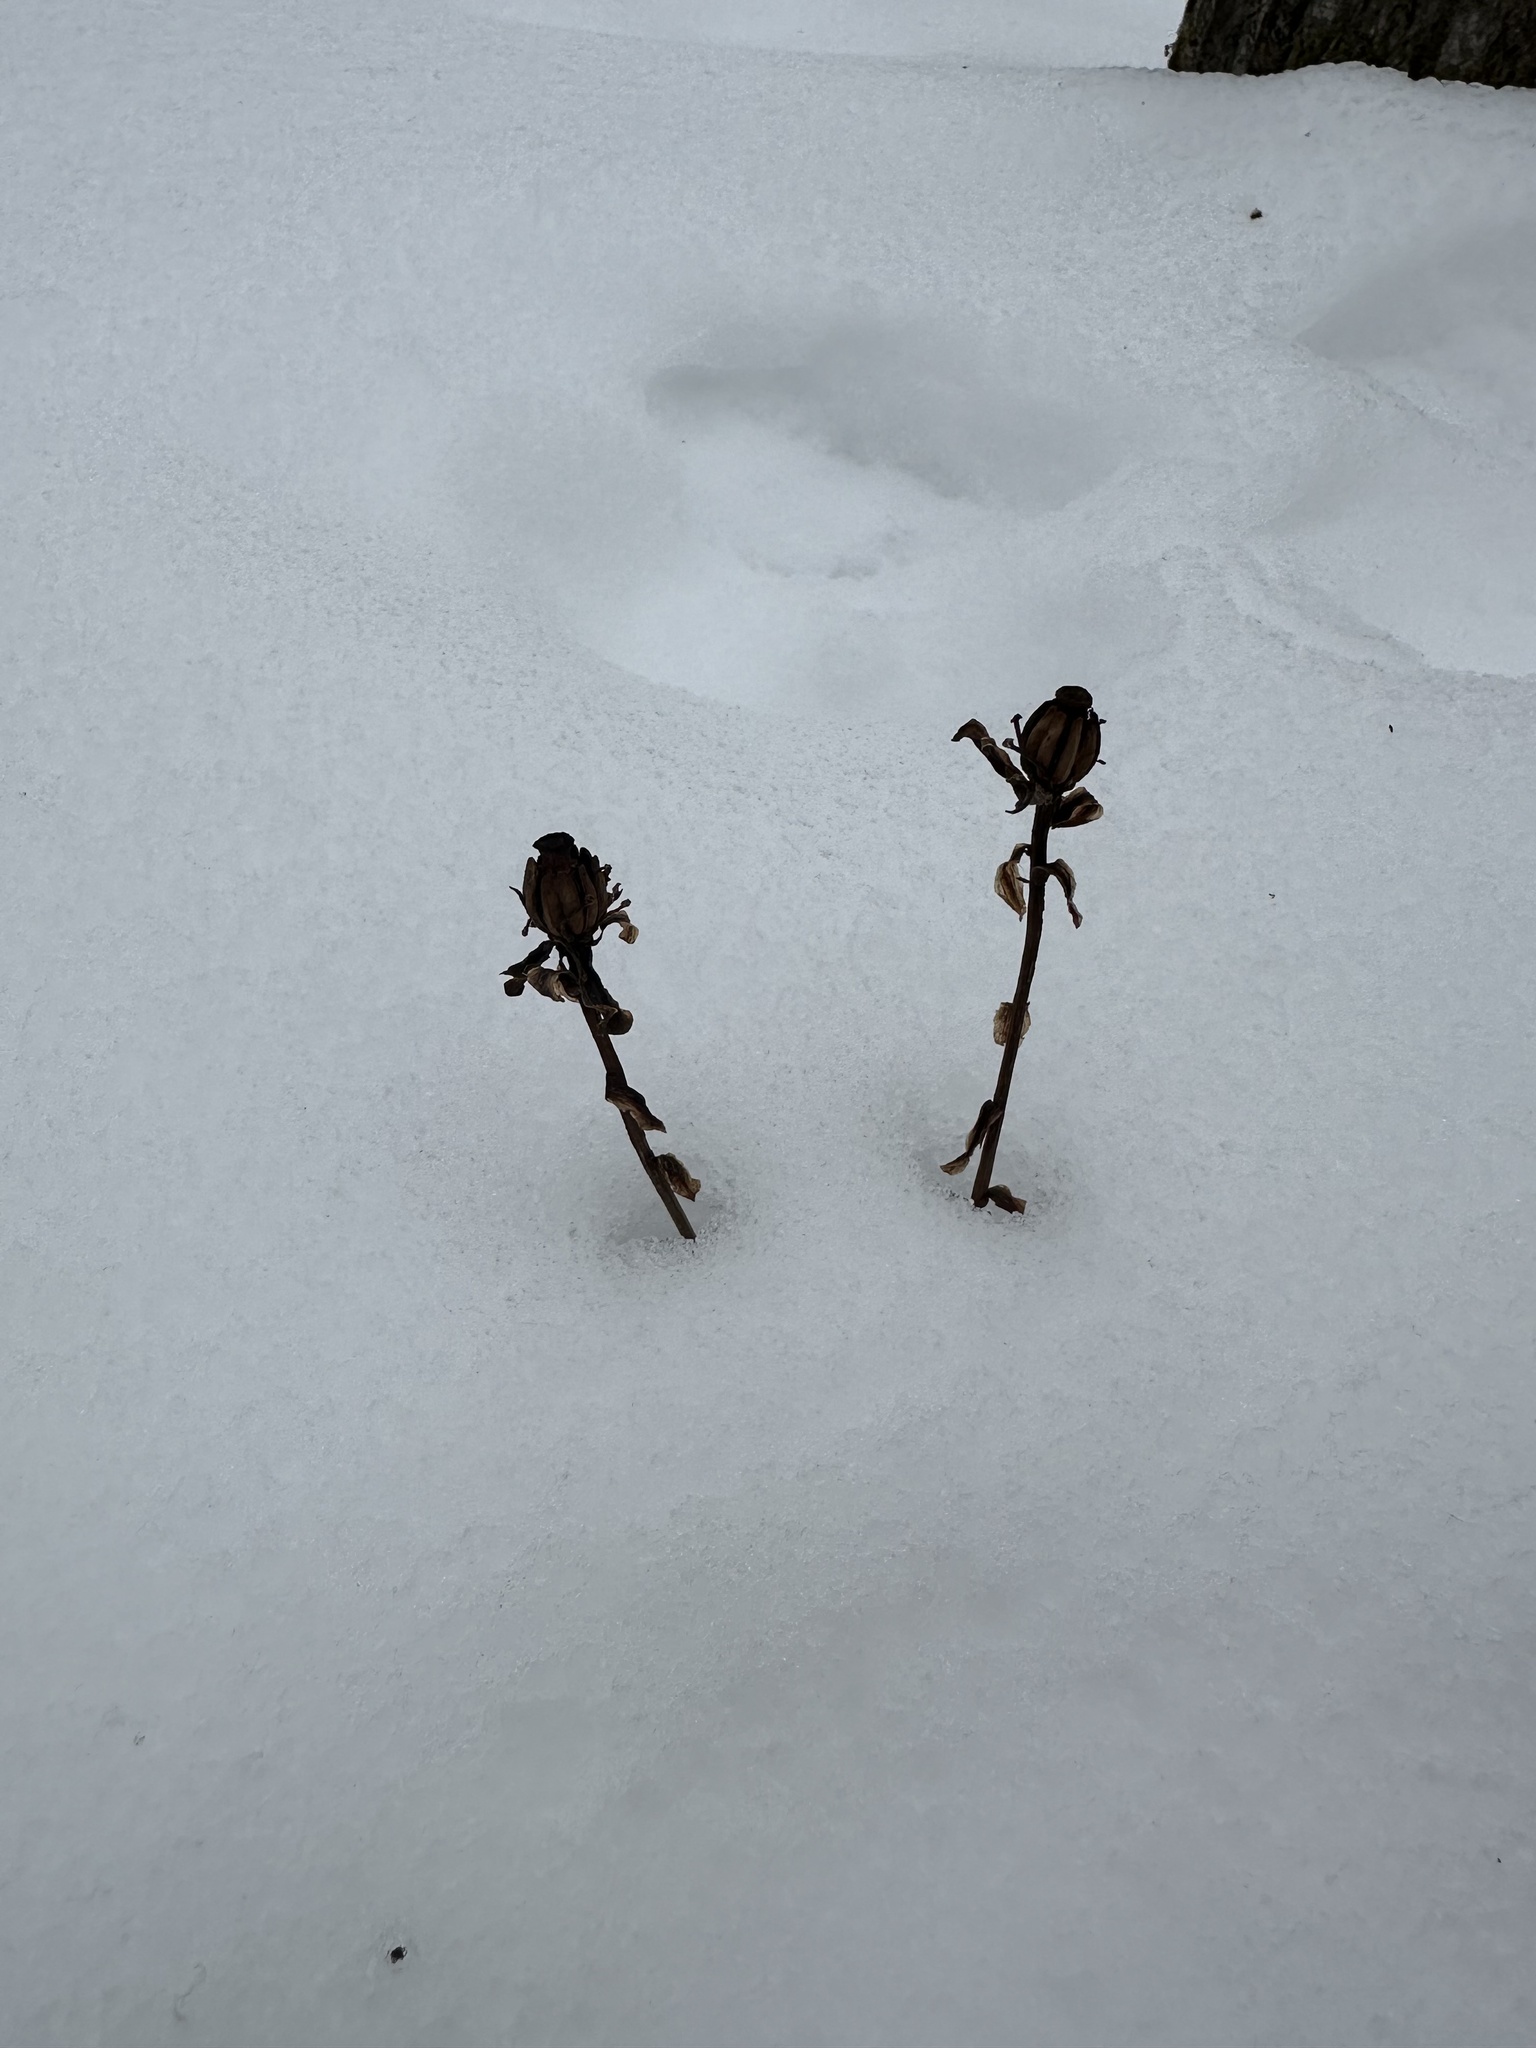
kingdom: Plantae
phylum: Tracheophyta
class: Magnoliopsida
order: Ericales
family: Ericaceae
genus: Monotropa
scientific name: Monotropa uniflora
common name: Convulsion root
